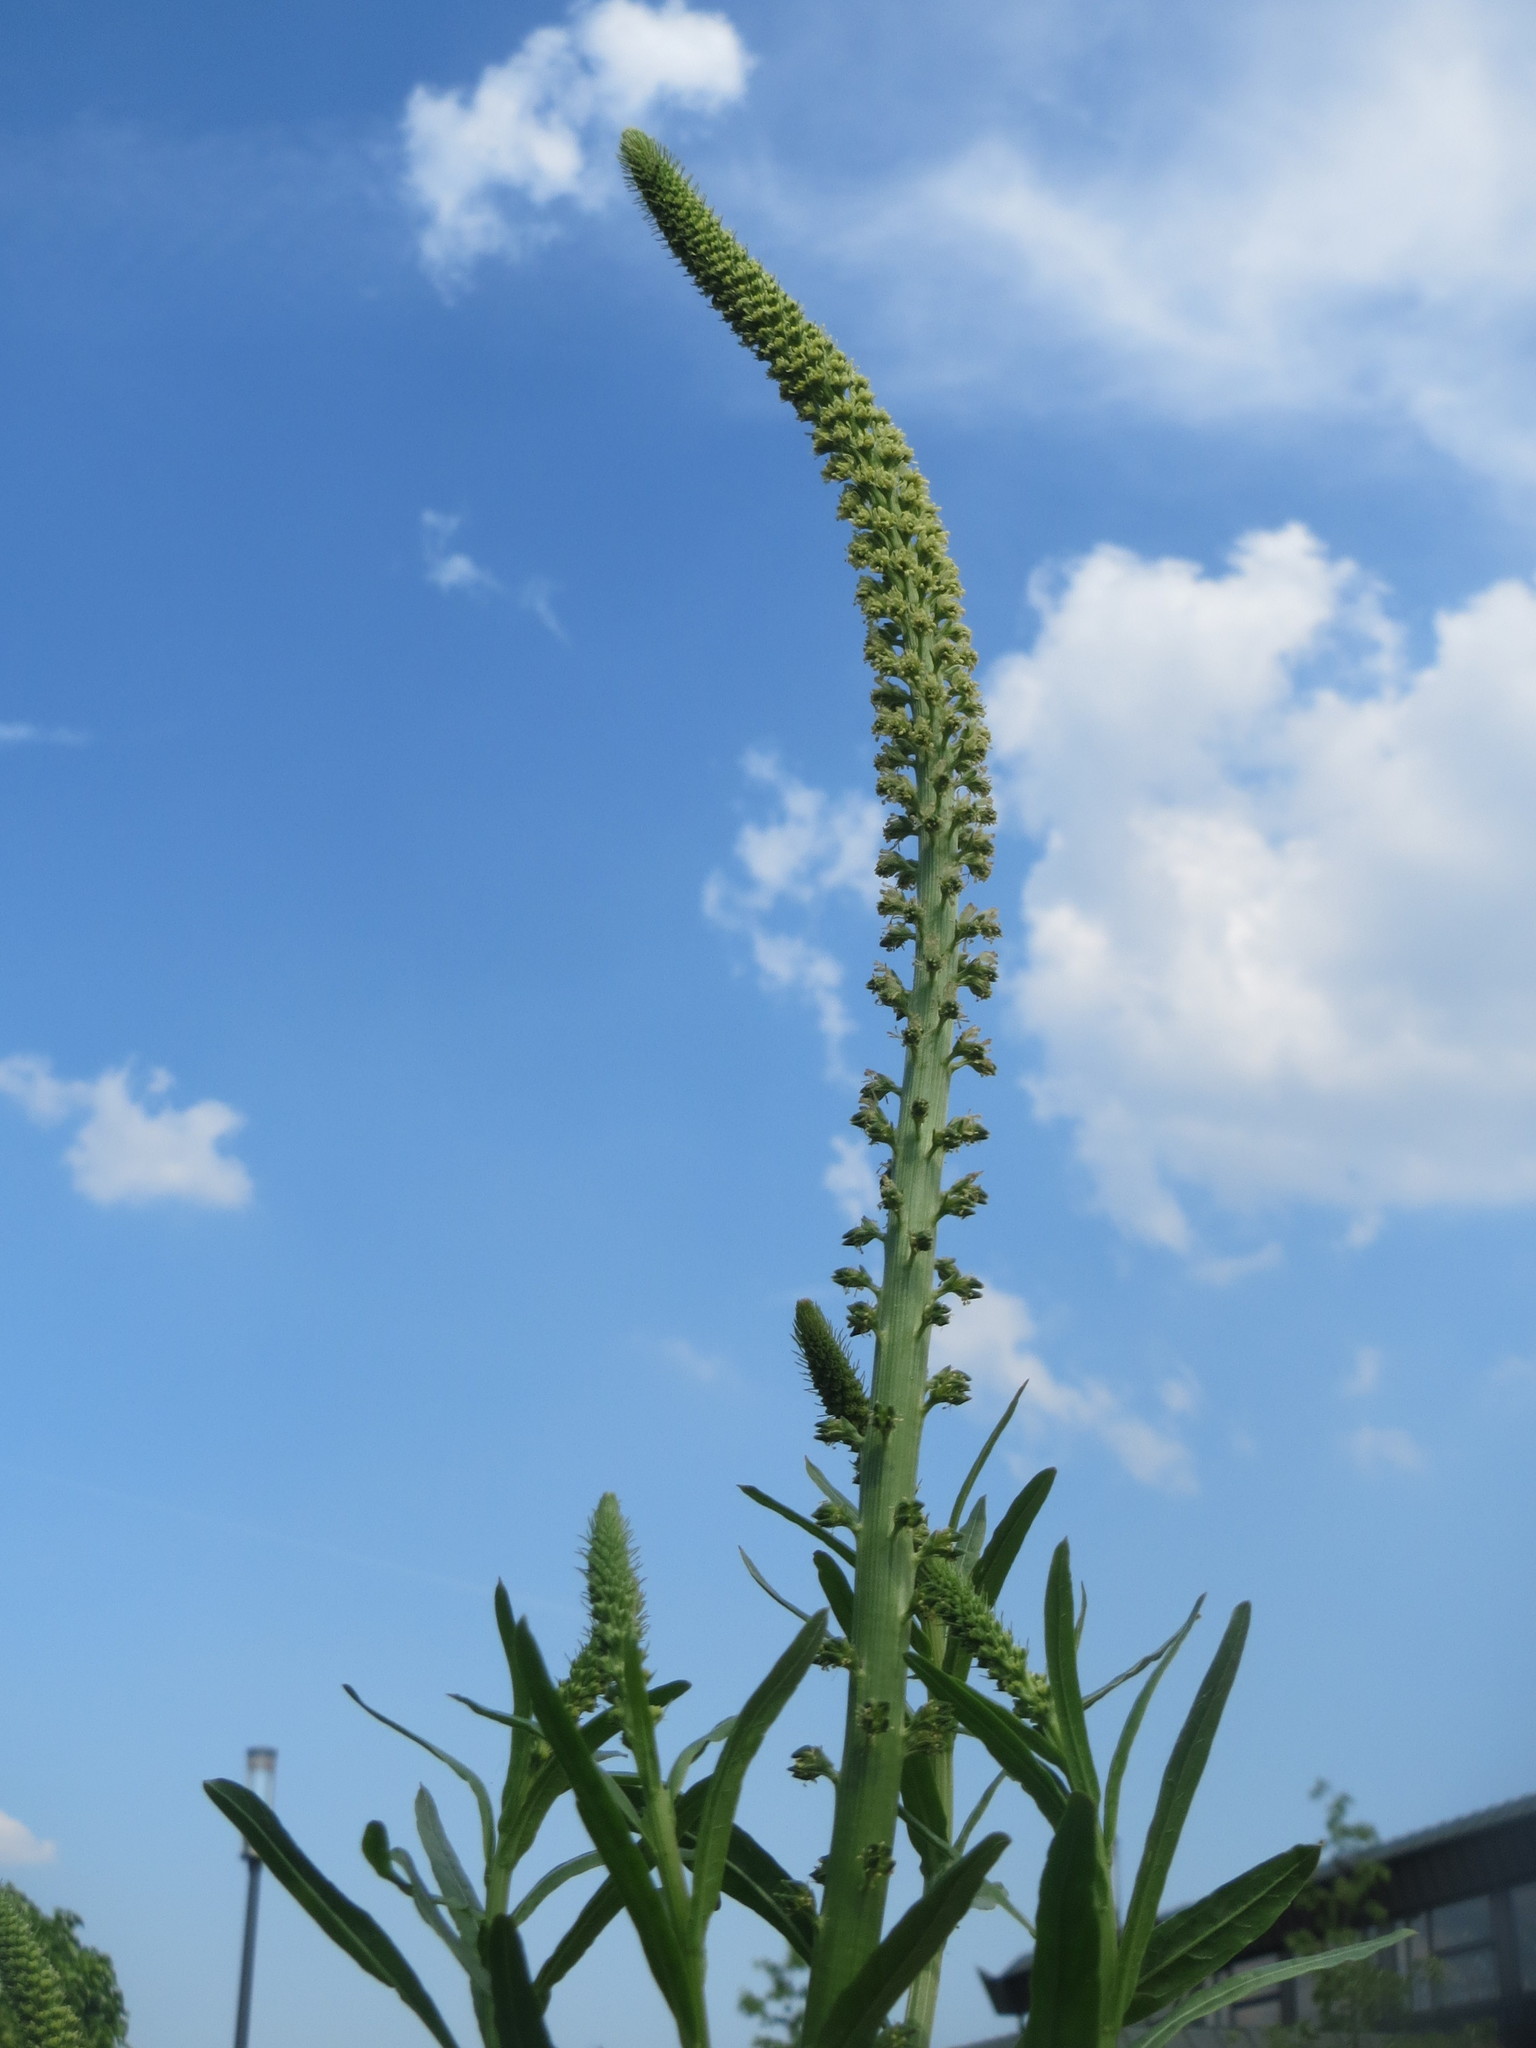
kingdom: Plantae
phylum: Tracheophyta
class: Magnoliopsida
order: Brassicales
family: Resedaceae
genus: Reseda
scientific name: Reseda luteola
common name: Weld
